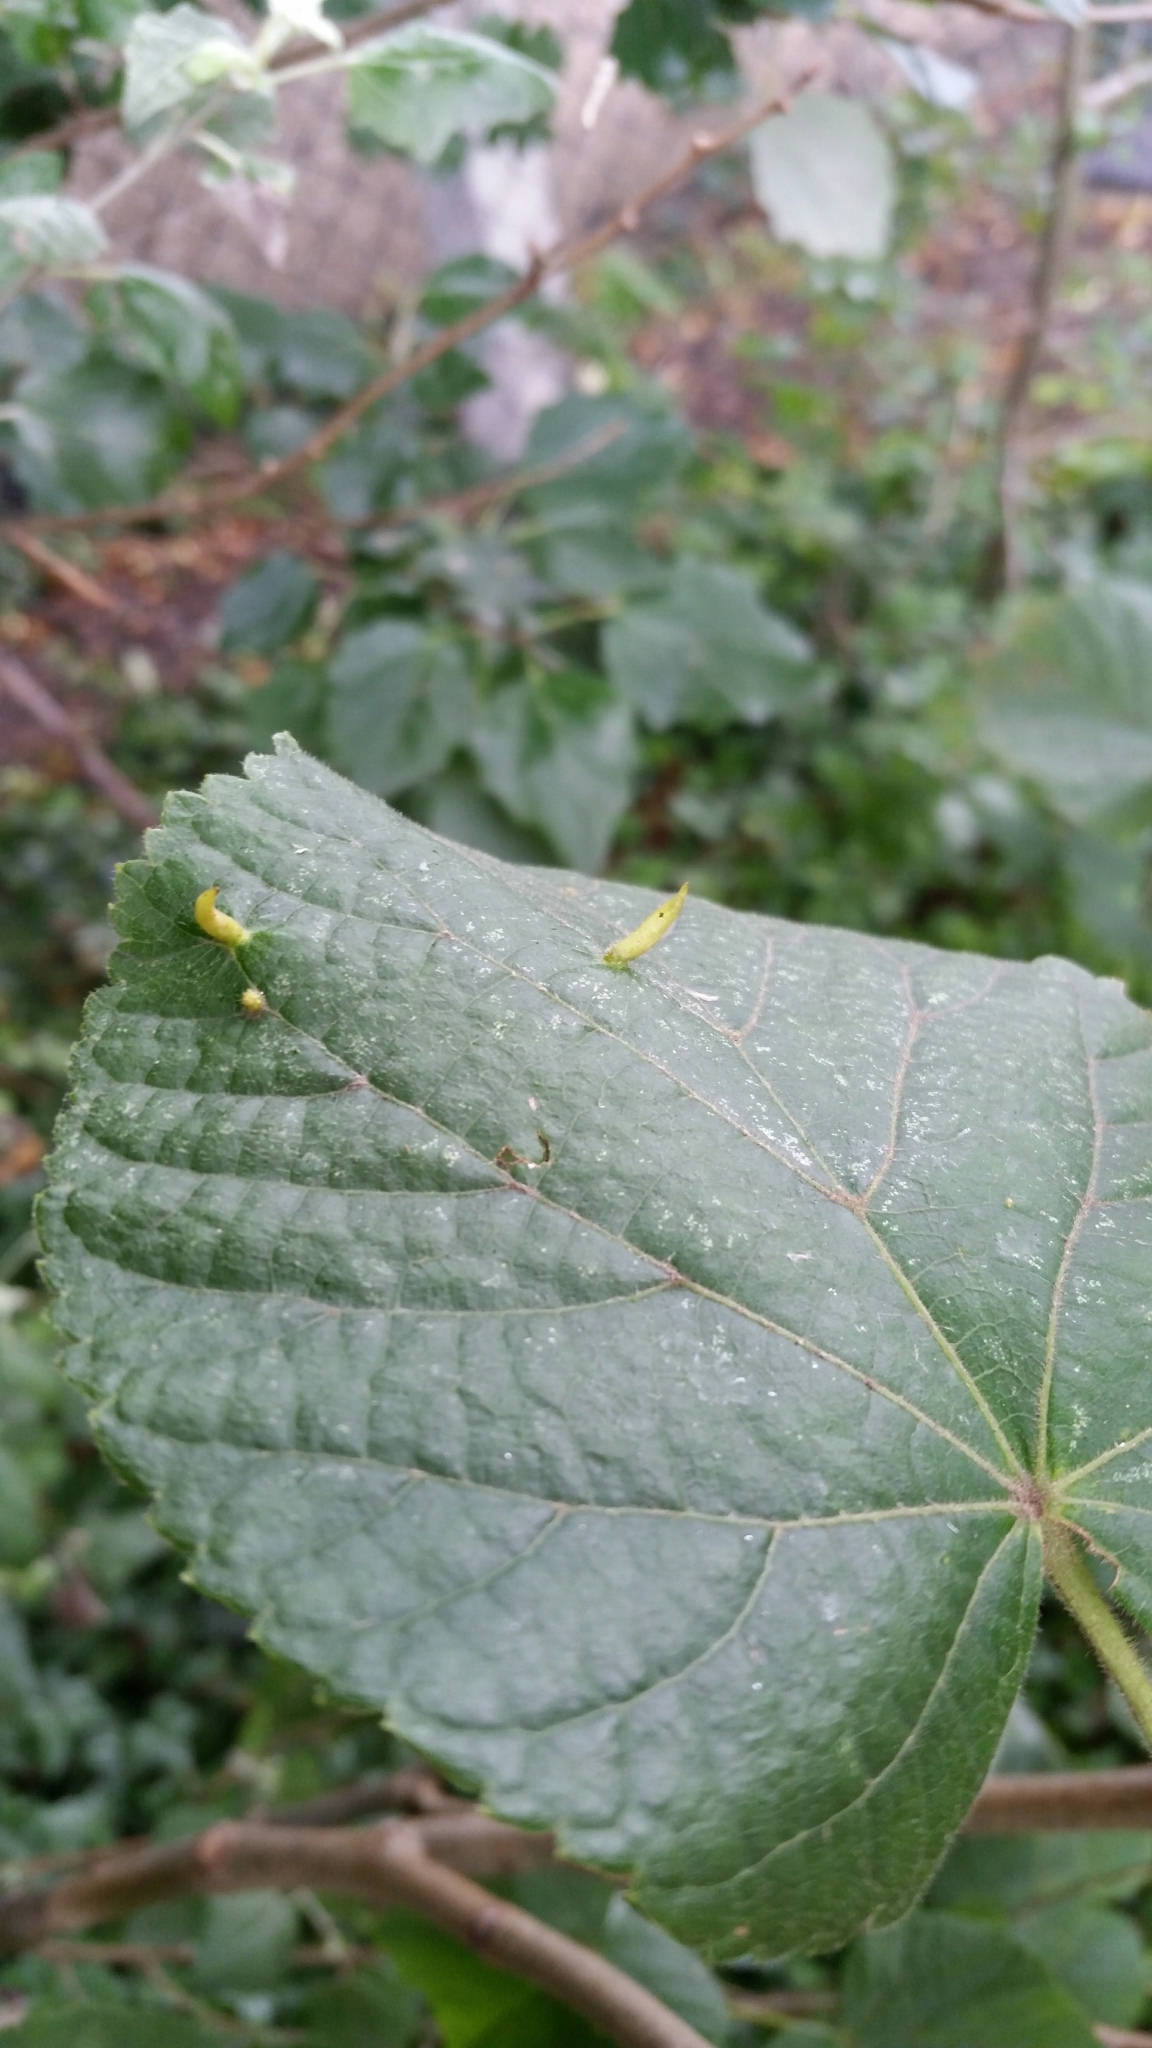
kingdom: Animalia
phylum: Arthropoda
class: Arachnida
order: Trombidiformes
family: Eriophyidae
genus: Eriophyes
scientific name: Eriophyes tiliae
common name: Red nail gall mite
